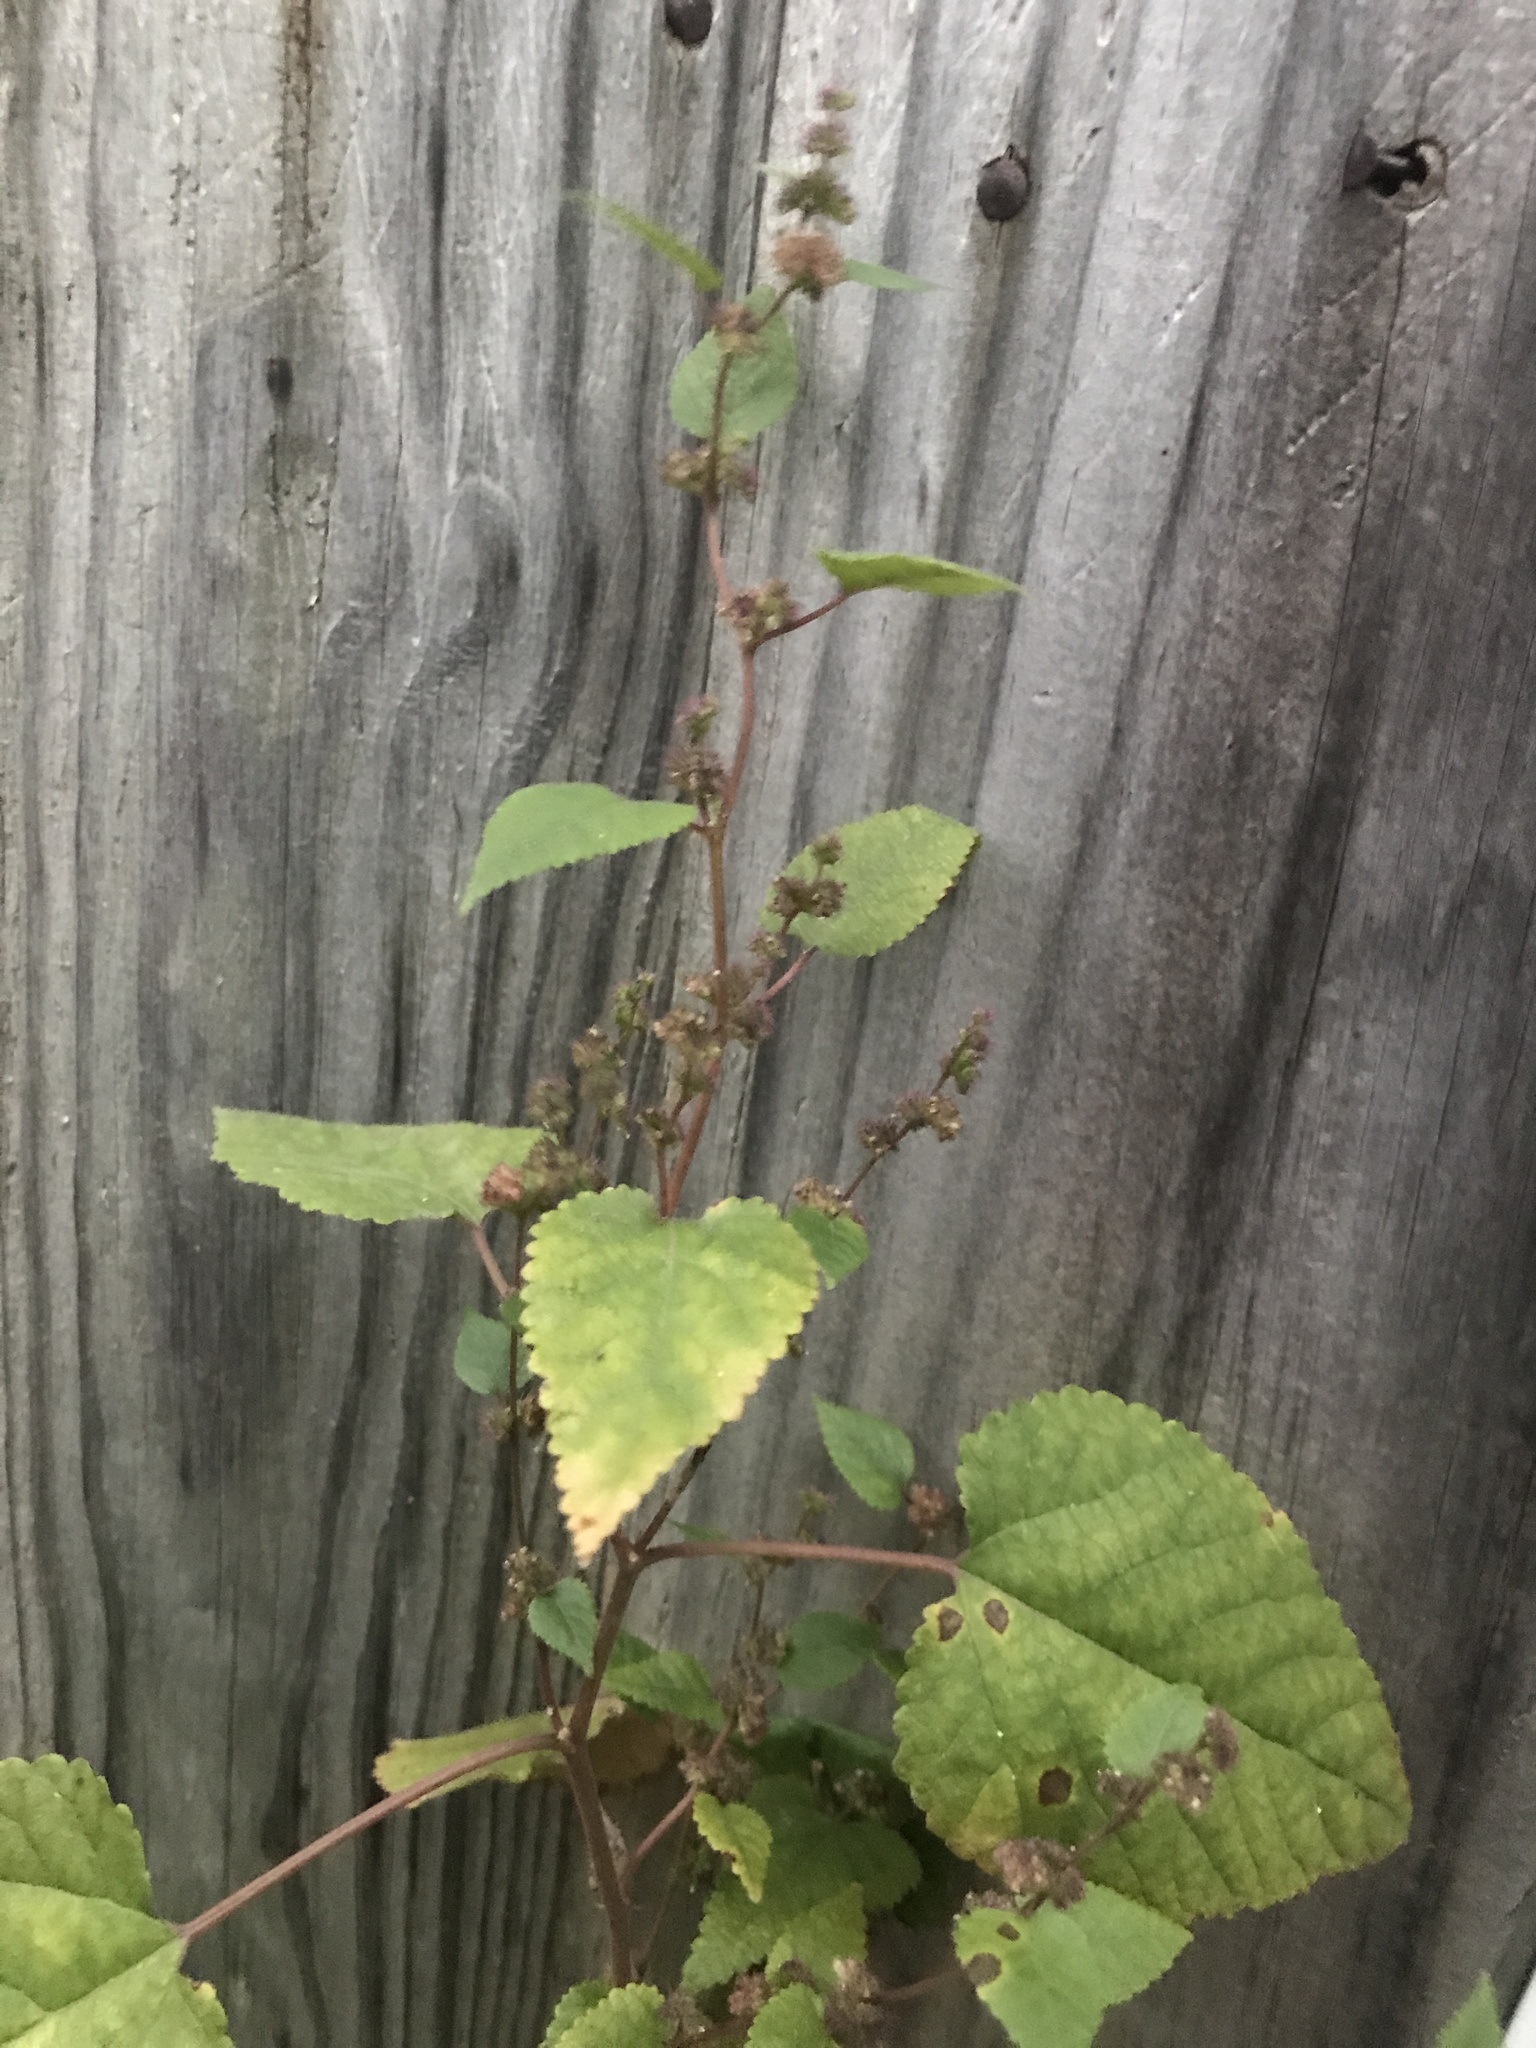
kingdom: Plantae
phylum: Tracheophyta
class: Magnoliopsida
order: Rosales
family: Moraceae
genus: Fatoua
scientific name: Fatoua villosa
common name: Hairy crabweed
